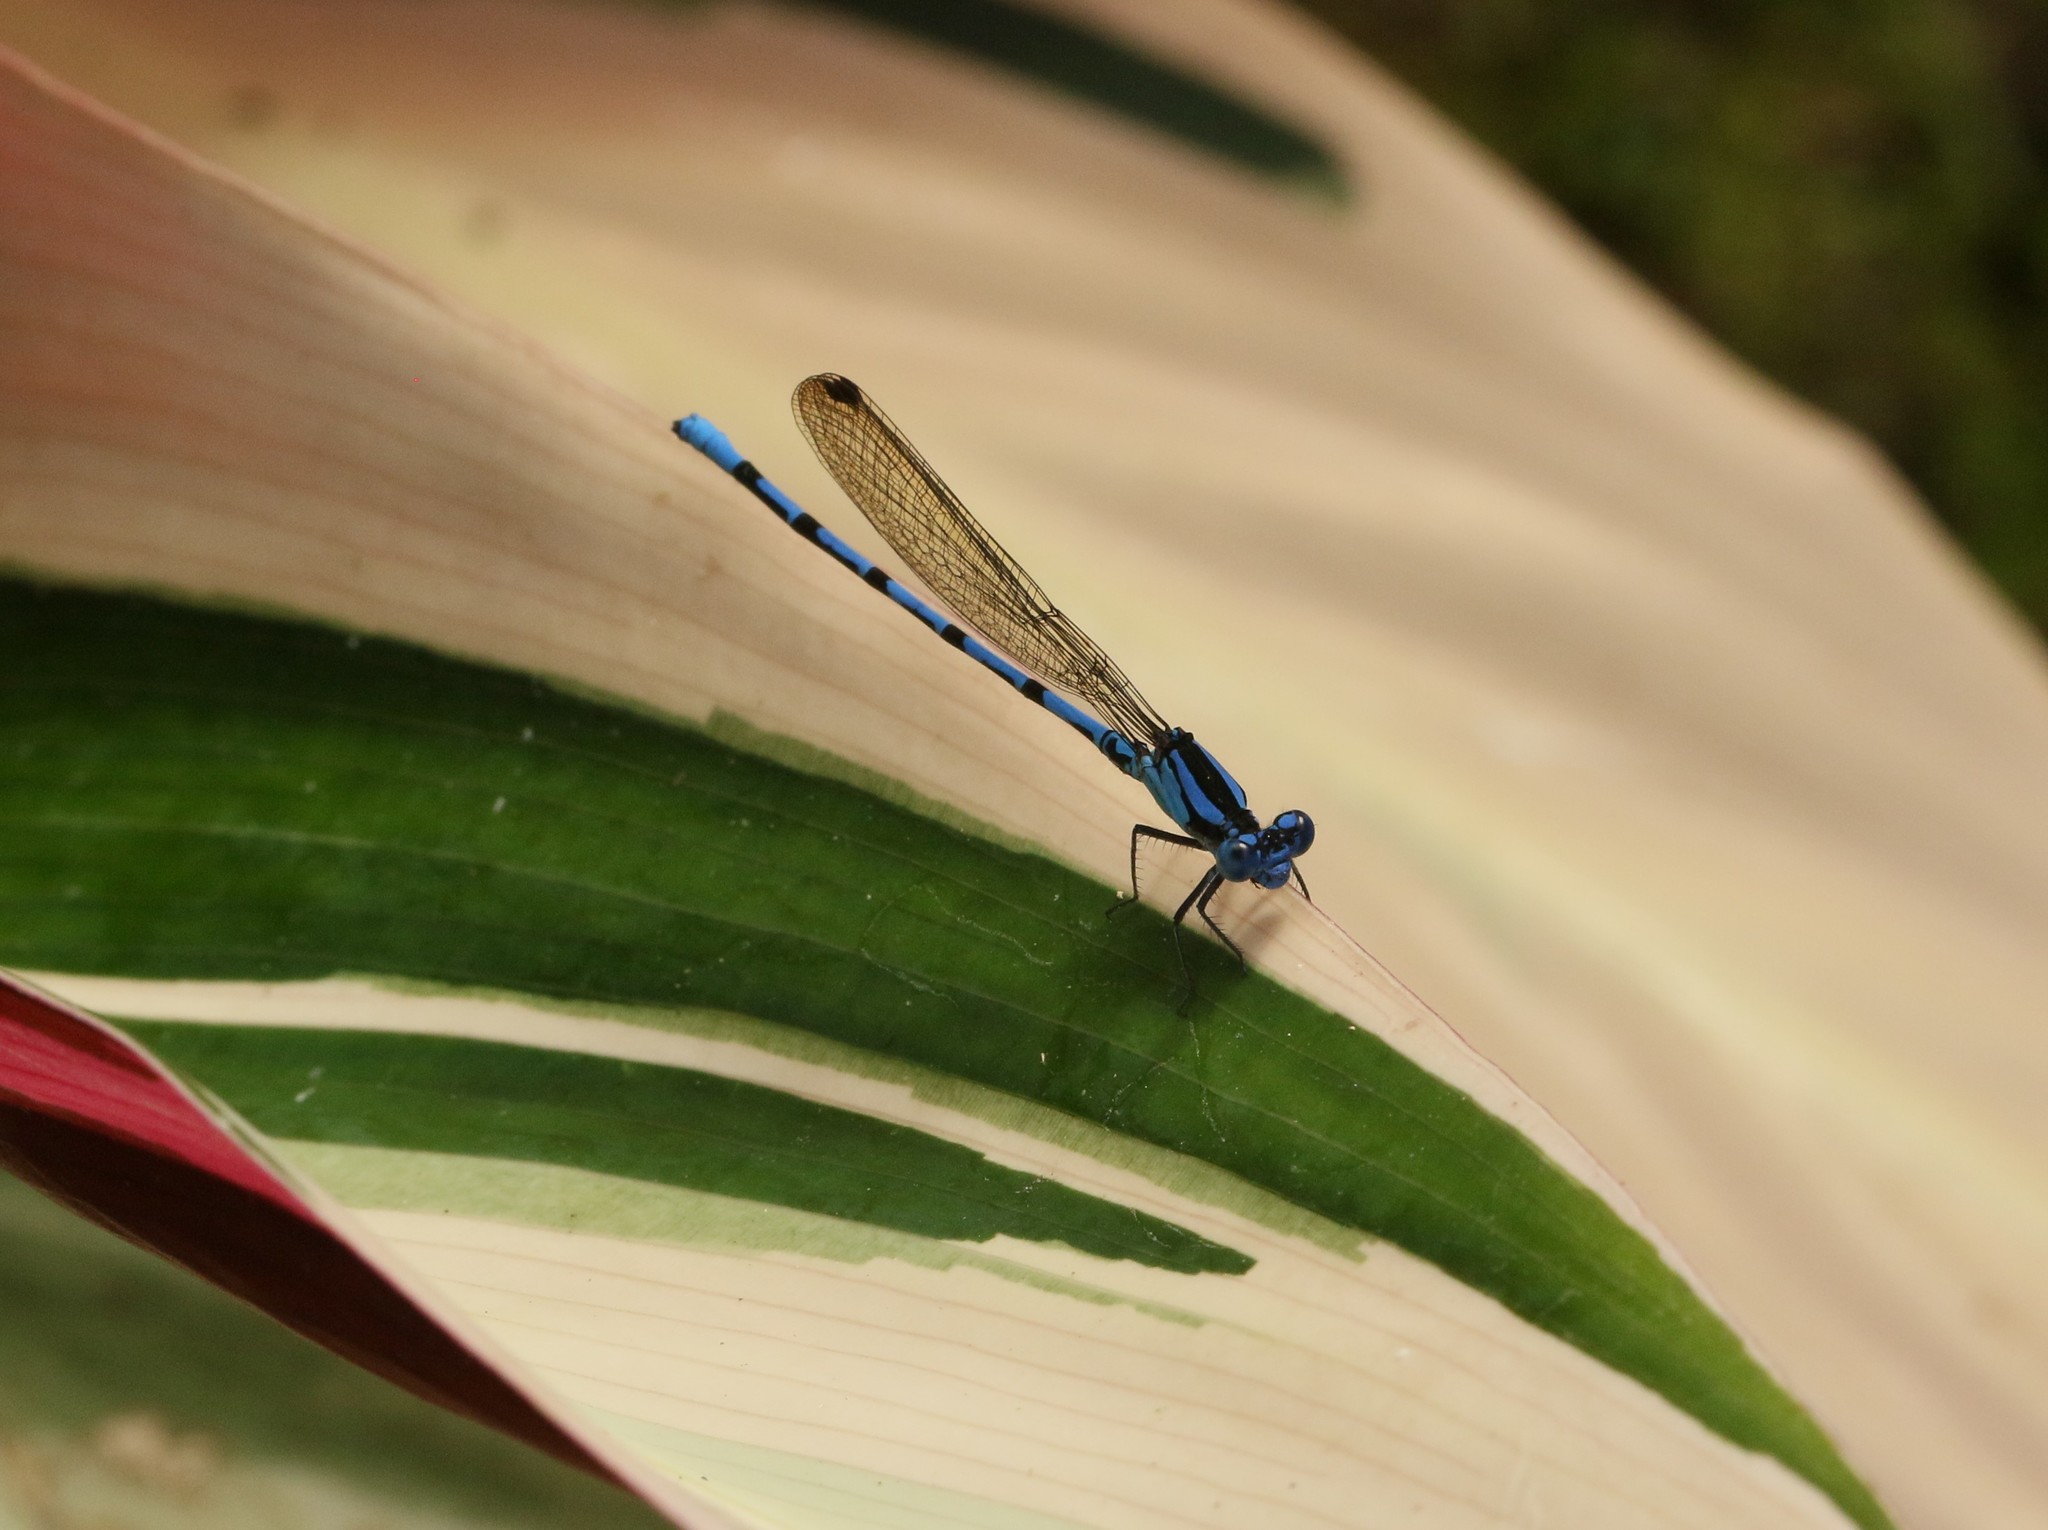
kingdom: Animalia
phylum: Arthropoda
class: Insecta
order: Odonata
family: Coenagrionidae
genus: Argia
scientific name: Argia elongata
